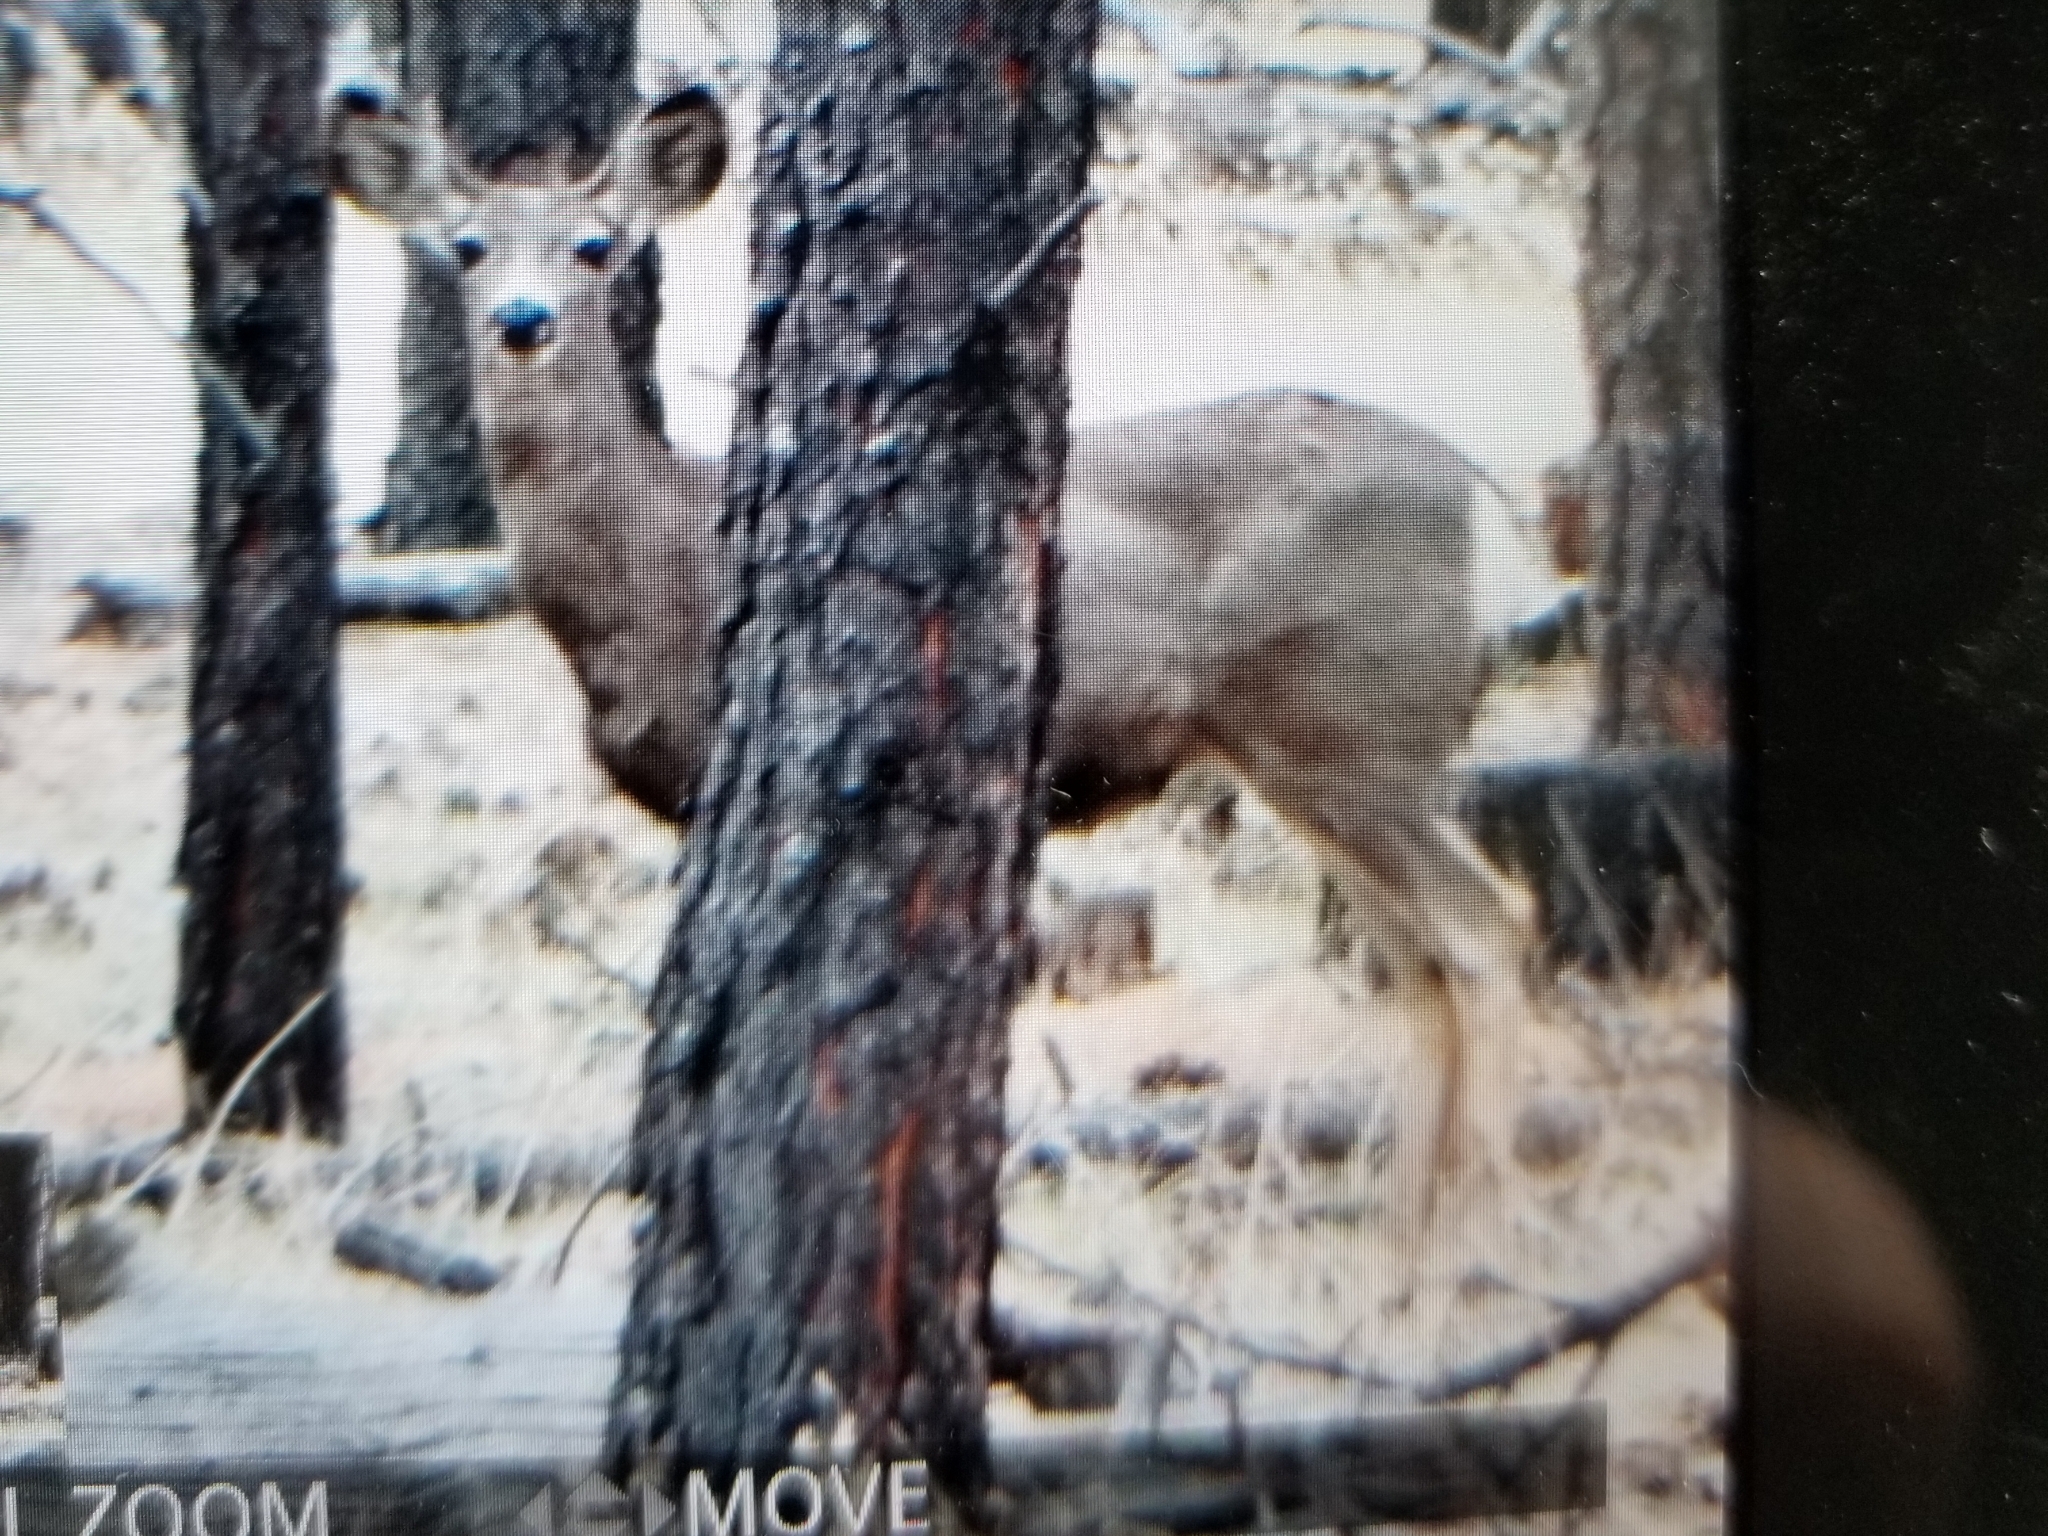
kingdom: Animalia
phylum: Chordata
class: Mammalia
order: Artiodactyla
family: Cervidae
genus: Odocoileus
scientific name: Odocoileus hemionus
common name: Mule deer
